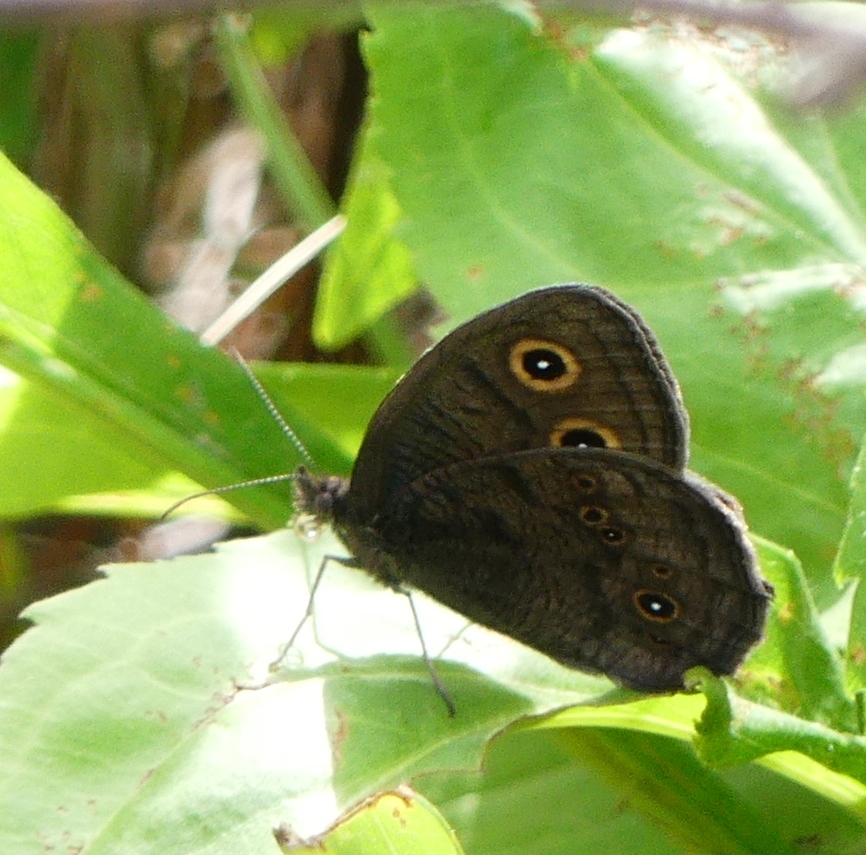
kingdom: Animalia
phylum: Arthropoda
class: Insecta
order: Lepidoptera
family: Nymphalidae
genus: Cercyonis
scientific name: Cercyonis pegala
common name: Common wood-nymph
